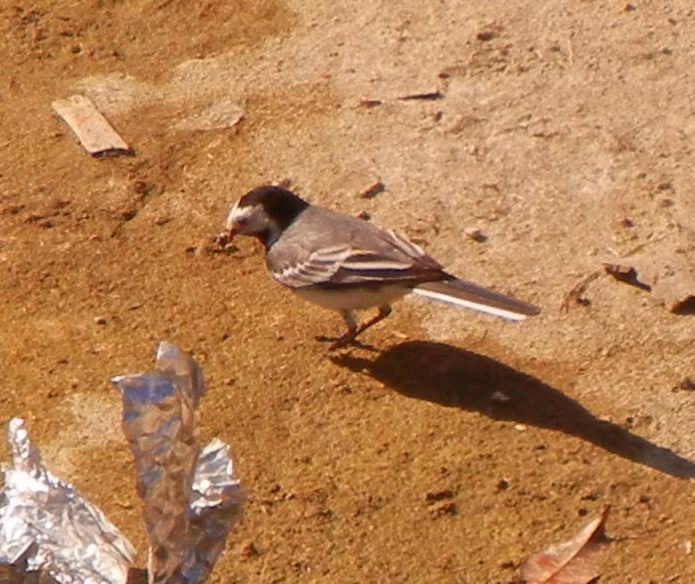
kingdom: Animalia
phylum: Chordata
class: Aves
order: Passeriformes
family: Motacillidae
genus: Motacilla
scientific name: Motacilla alba
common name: White wagtail
